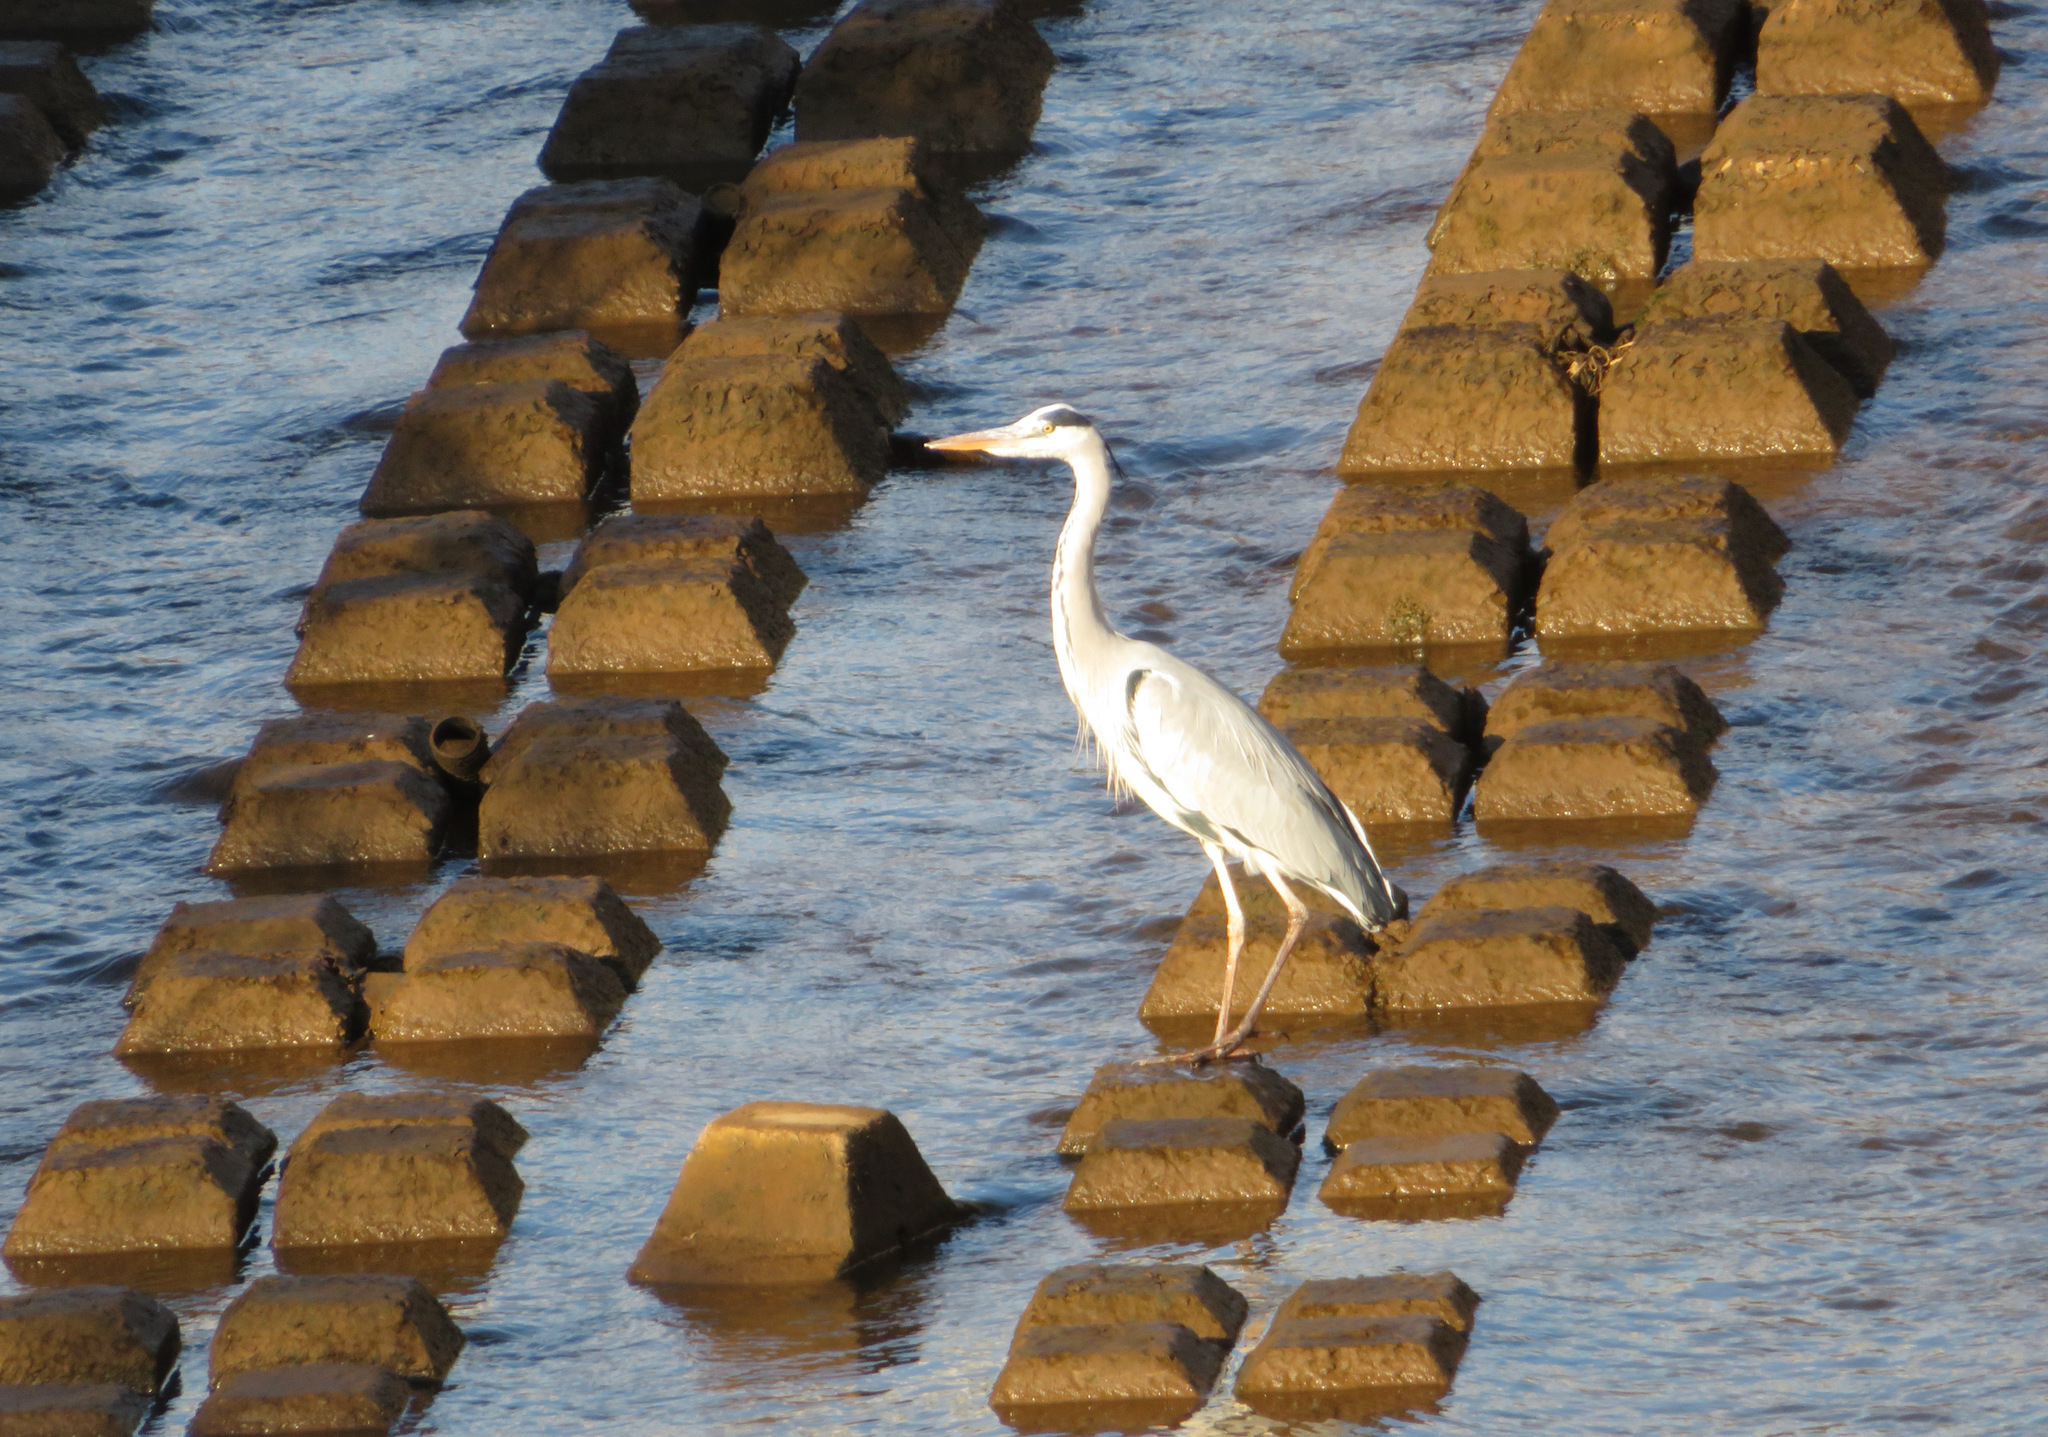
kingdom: Animalia
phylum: Chordata
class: Aves
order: Pelecaniformes
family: Ardeidae
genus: Ardea
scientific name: Ardea cinerea
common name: Grey heron
